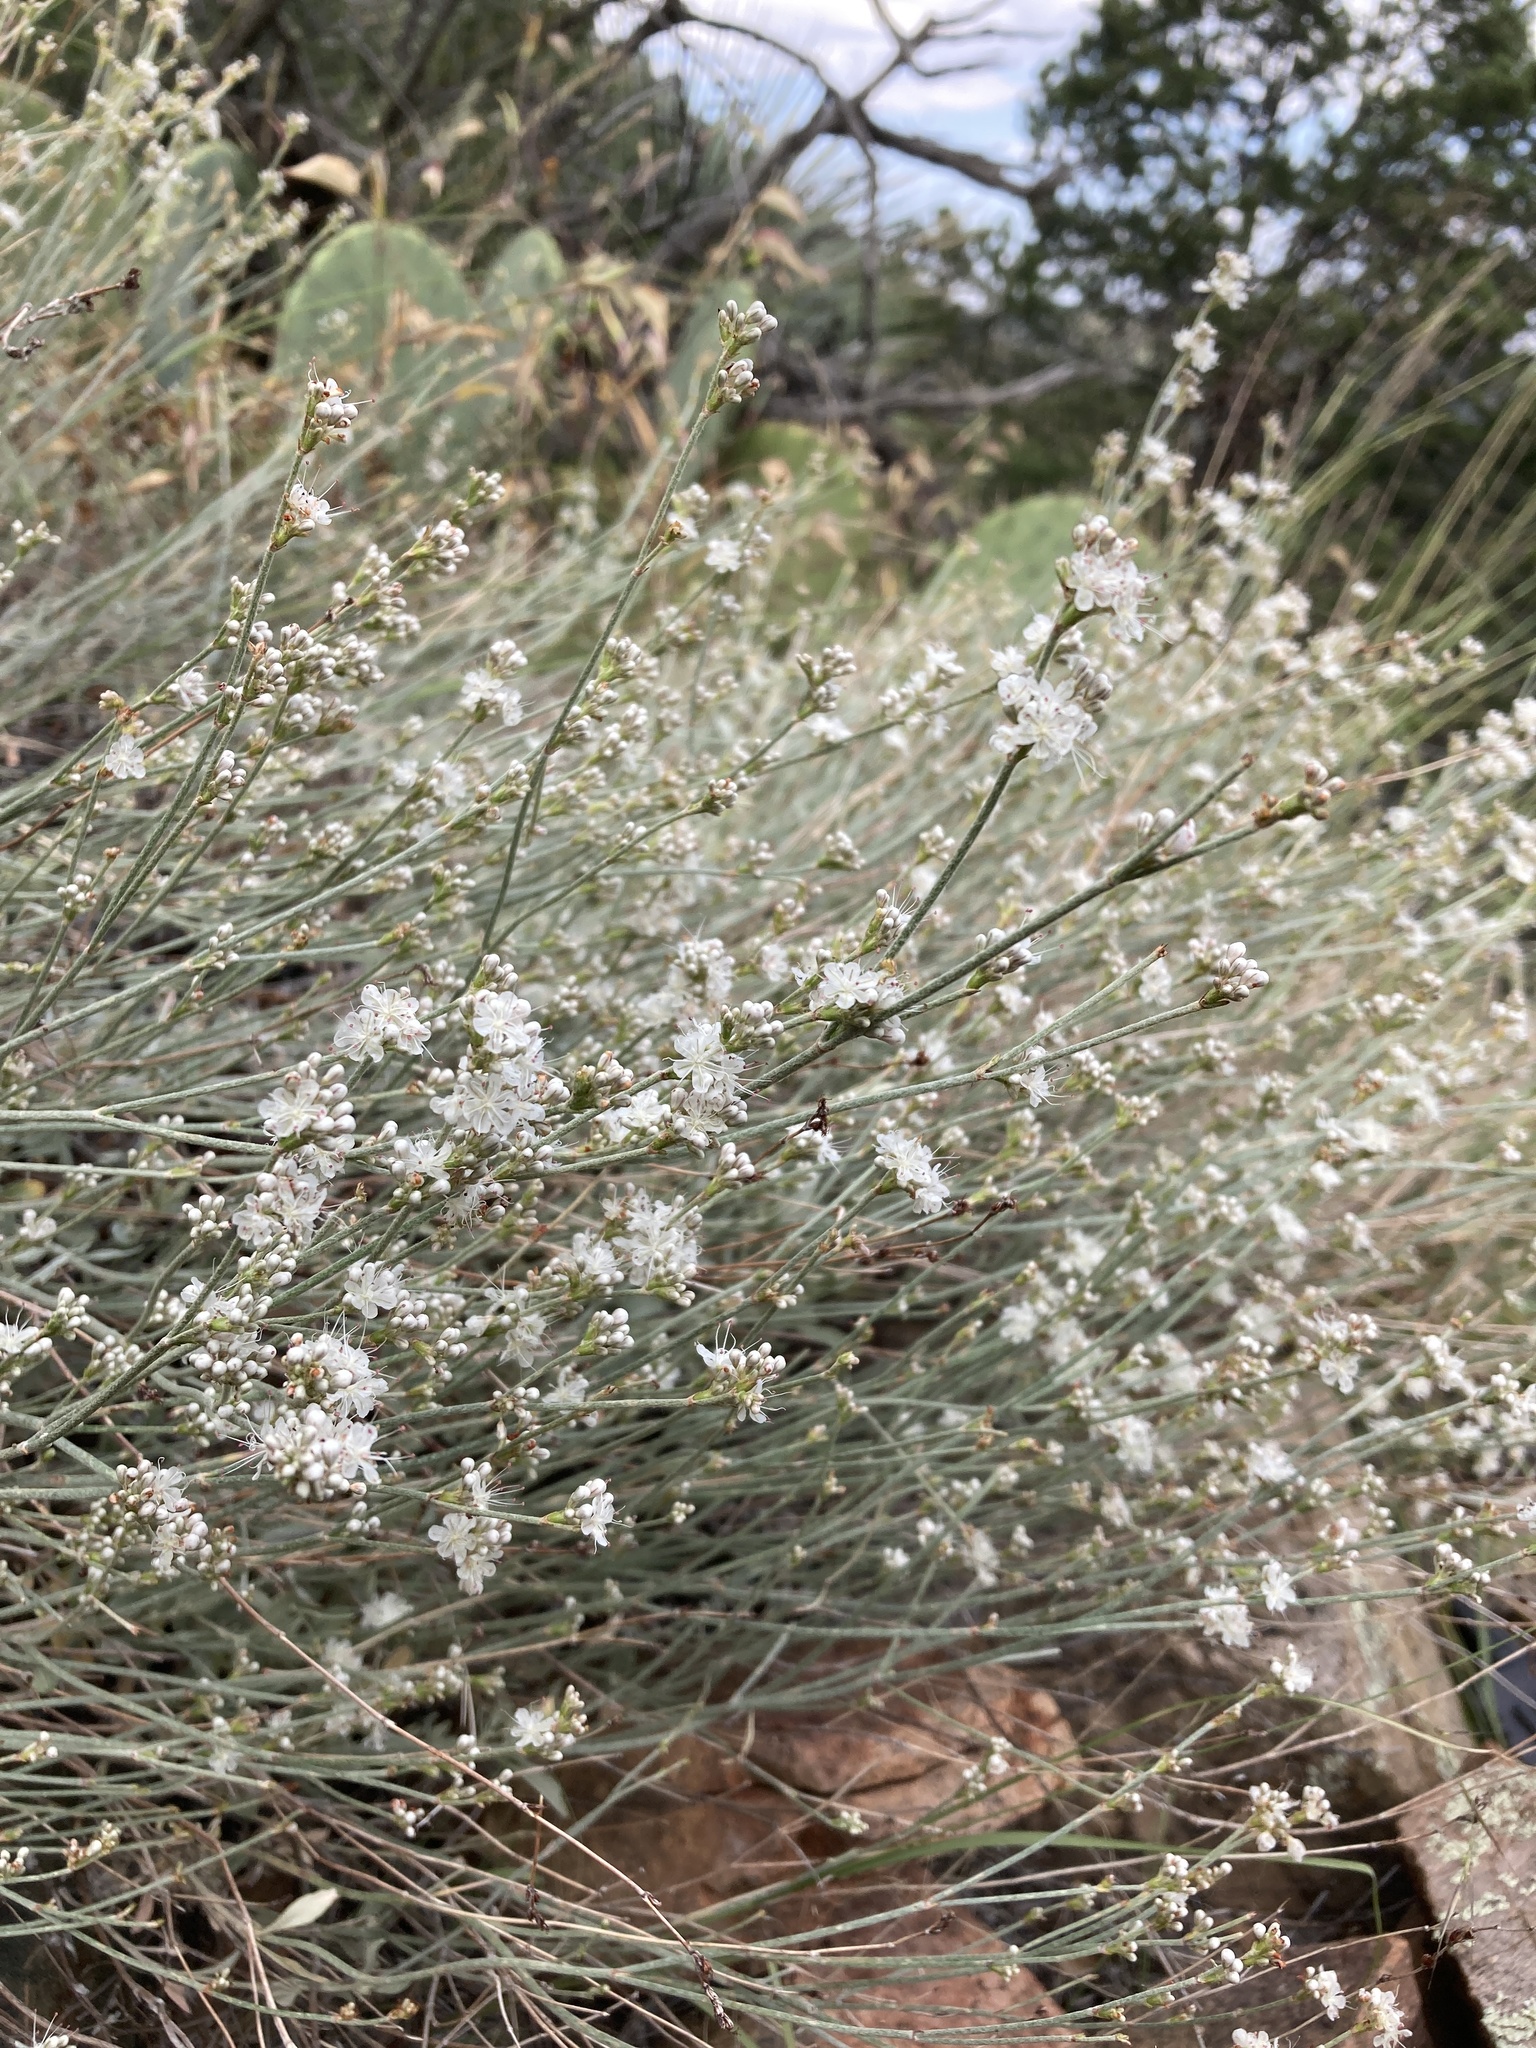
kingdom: Plantae
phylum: Tracheophyta
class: Magnoliopsida
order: Caryophyllales
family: Polygonaceae
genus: Eriogonum
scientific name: Eriogonum wrightii
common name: Bastard-sage
